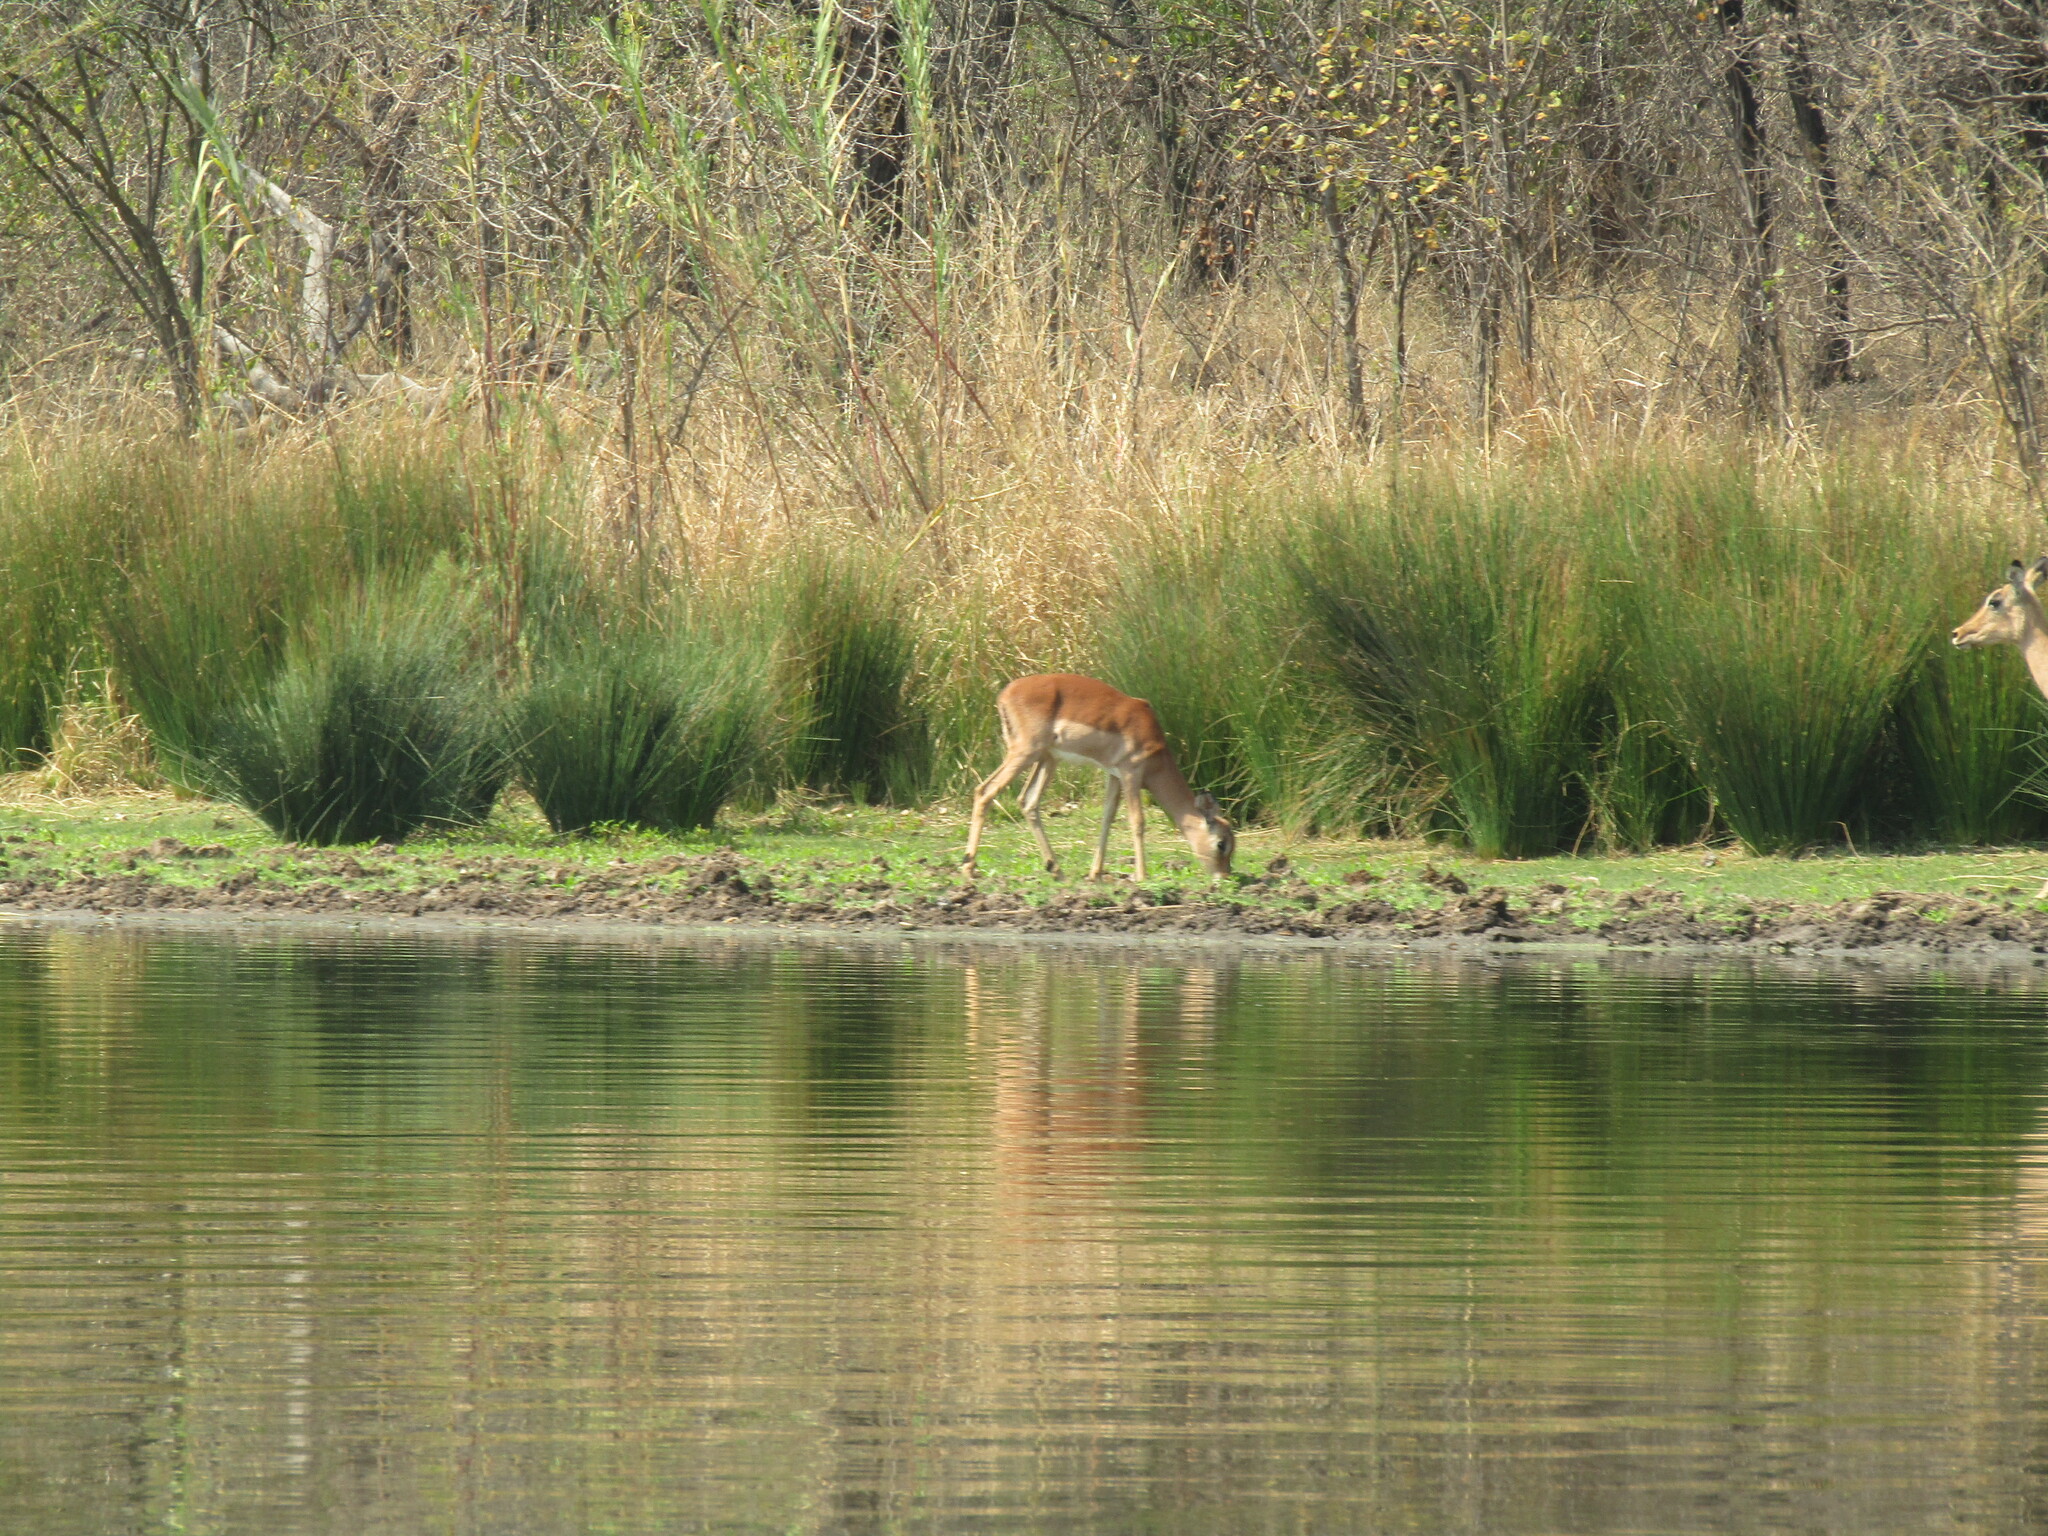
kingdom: Animalia
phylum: Chordata
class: Mammalia
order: Artiodactyla
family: Bovidae
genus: Aepyceros
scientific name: Aepyceros melampus
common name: Impala
